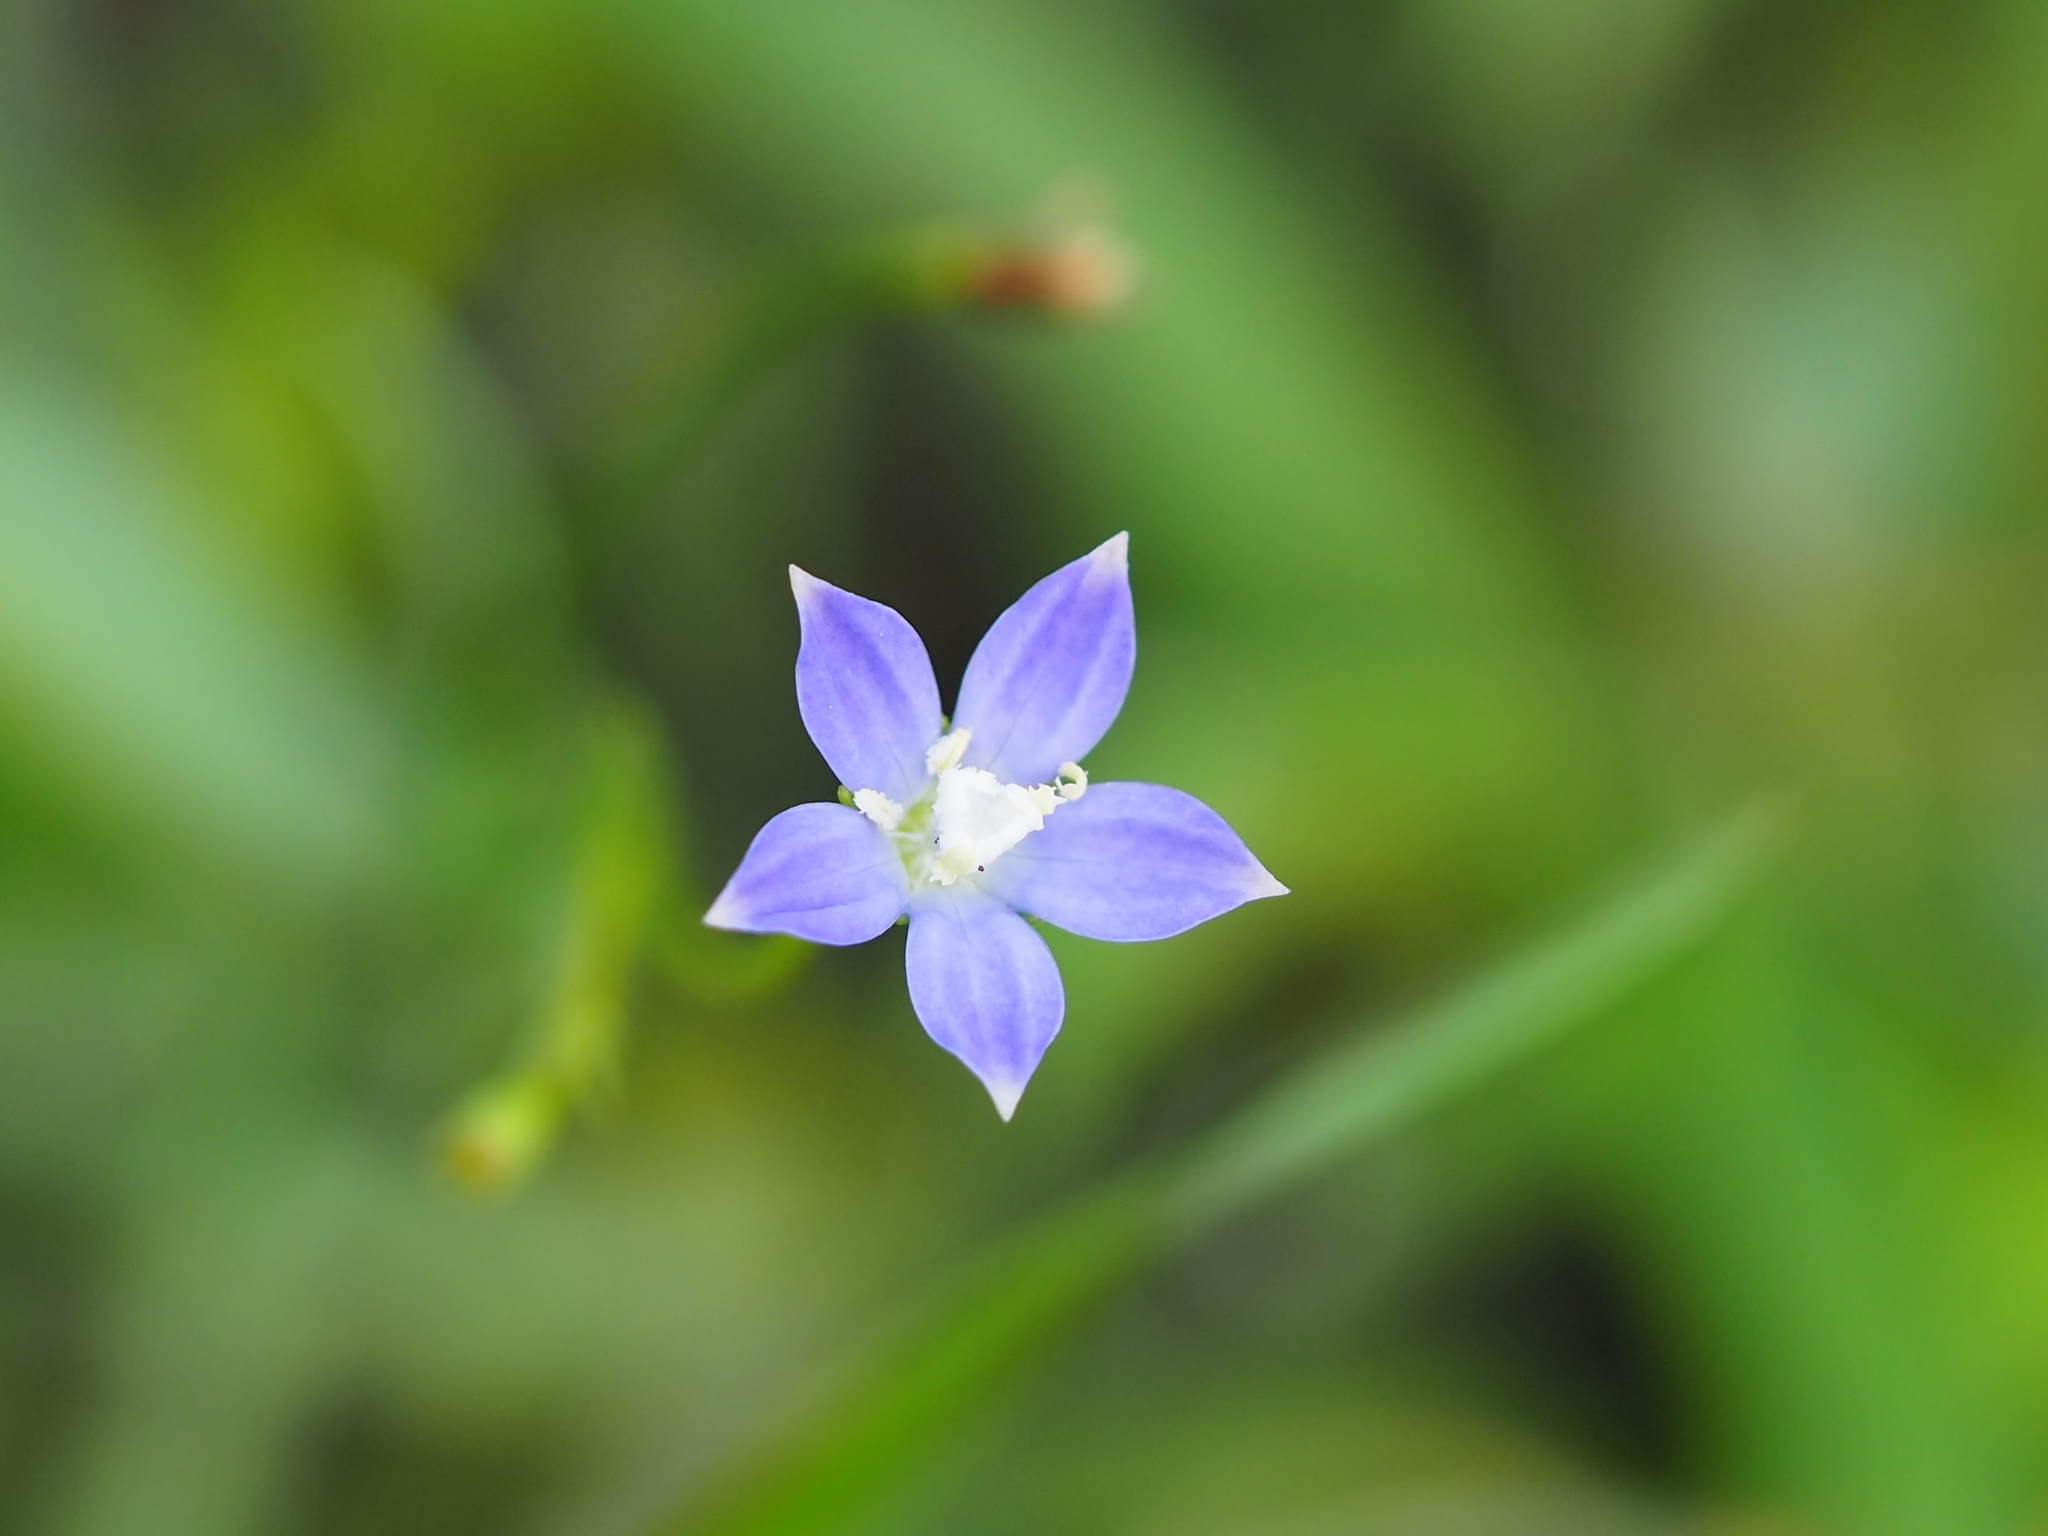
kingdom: Plantae
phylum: Tracheophyta
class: Magnoliopsida
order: Asterales
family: Campanulaceae
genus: Wahlenbergia
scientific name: Wahlenbergia marginata
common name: Southern rockbell
